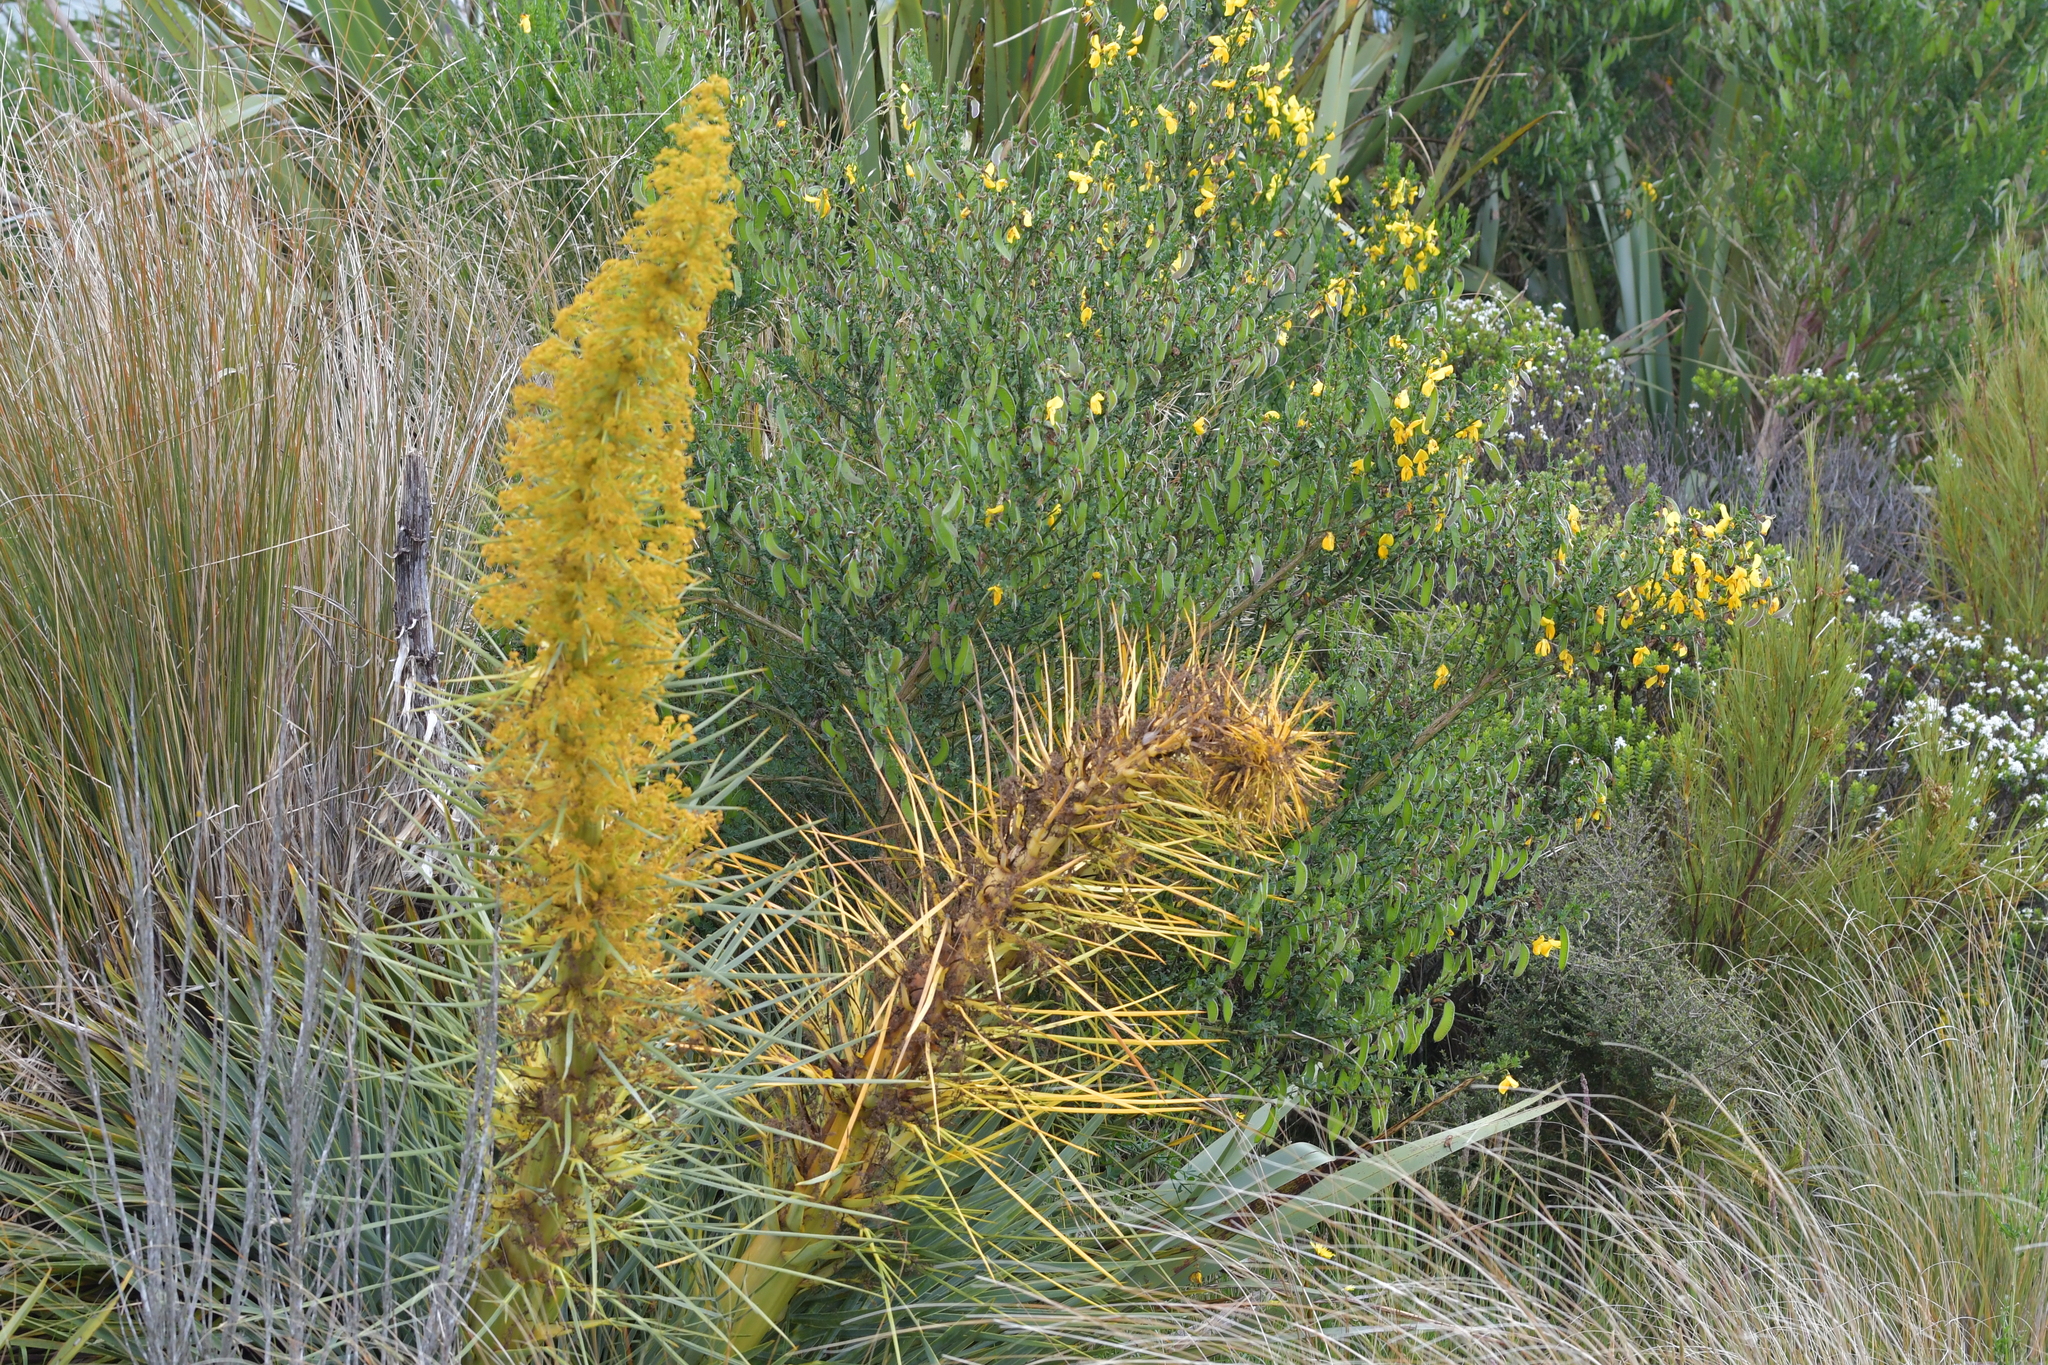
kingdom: Plantae
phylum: Tracheophyta
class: Magnoliopsida
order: Apiales
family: Apiaceae
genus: Aciphylla
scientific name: Aciphylla scott-thomsonii
